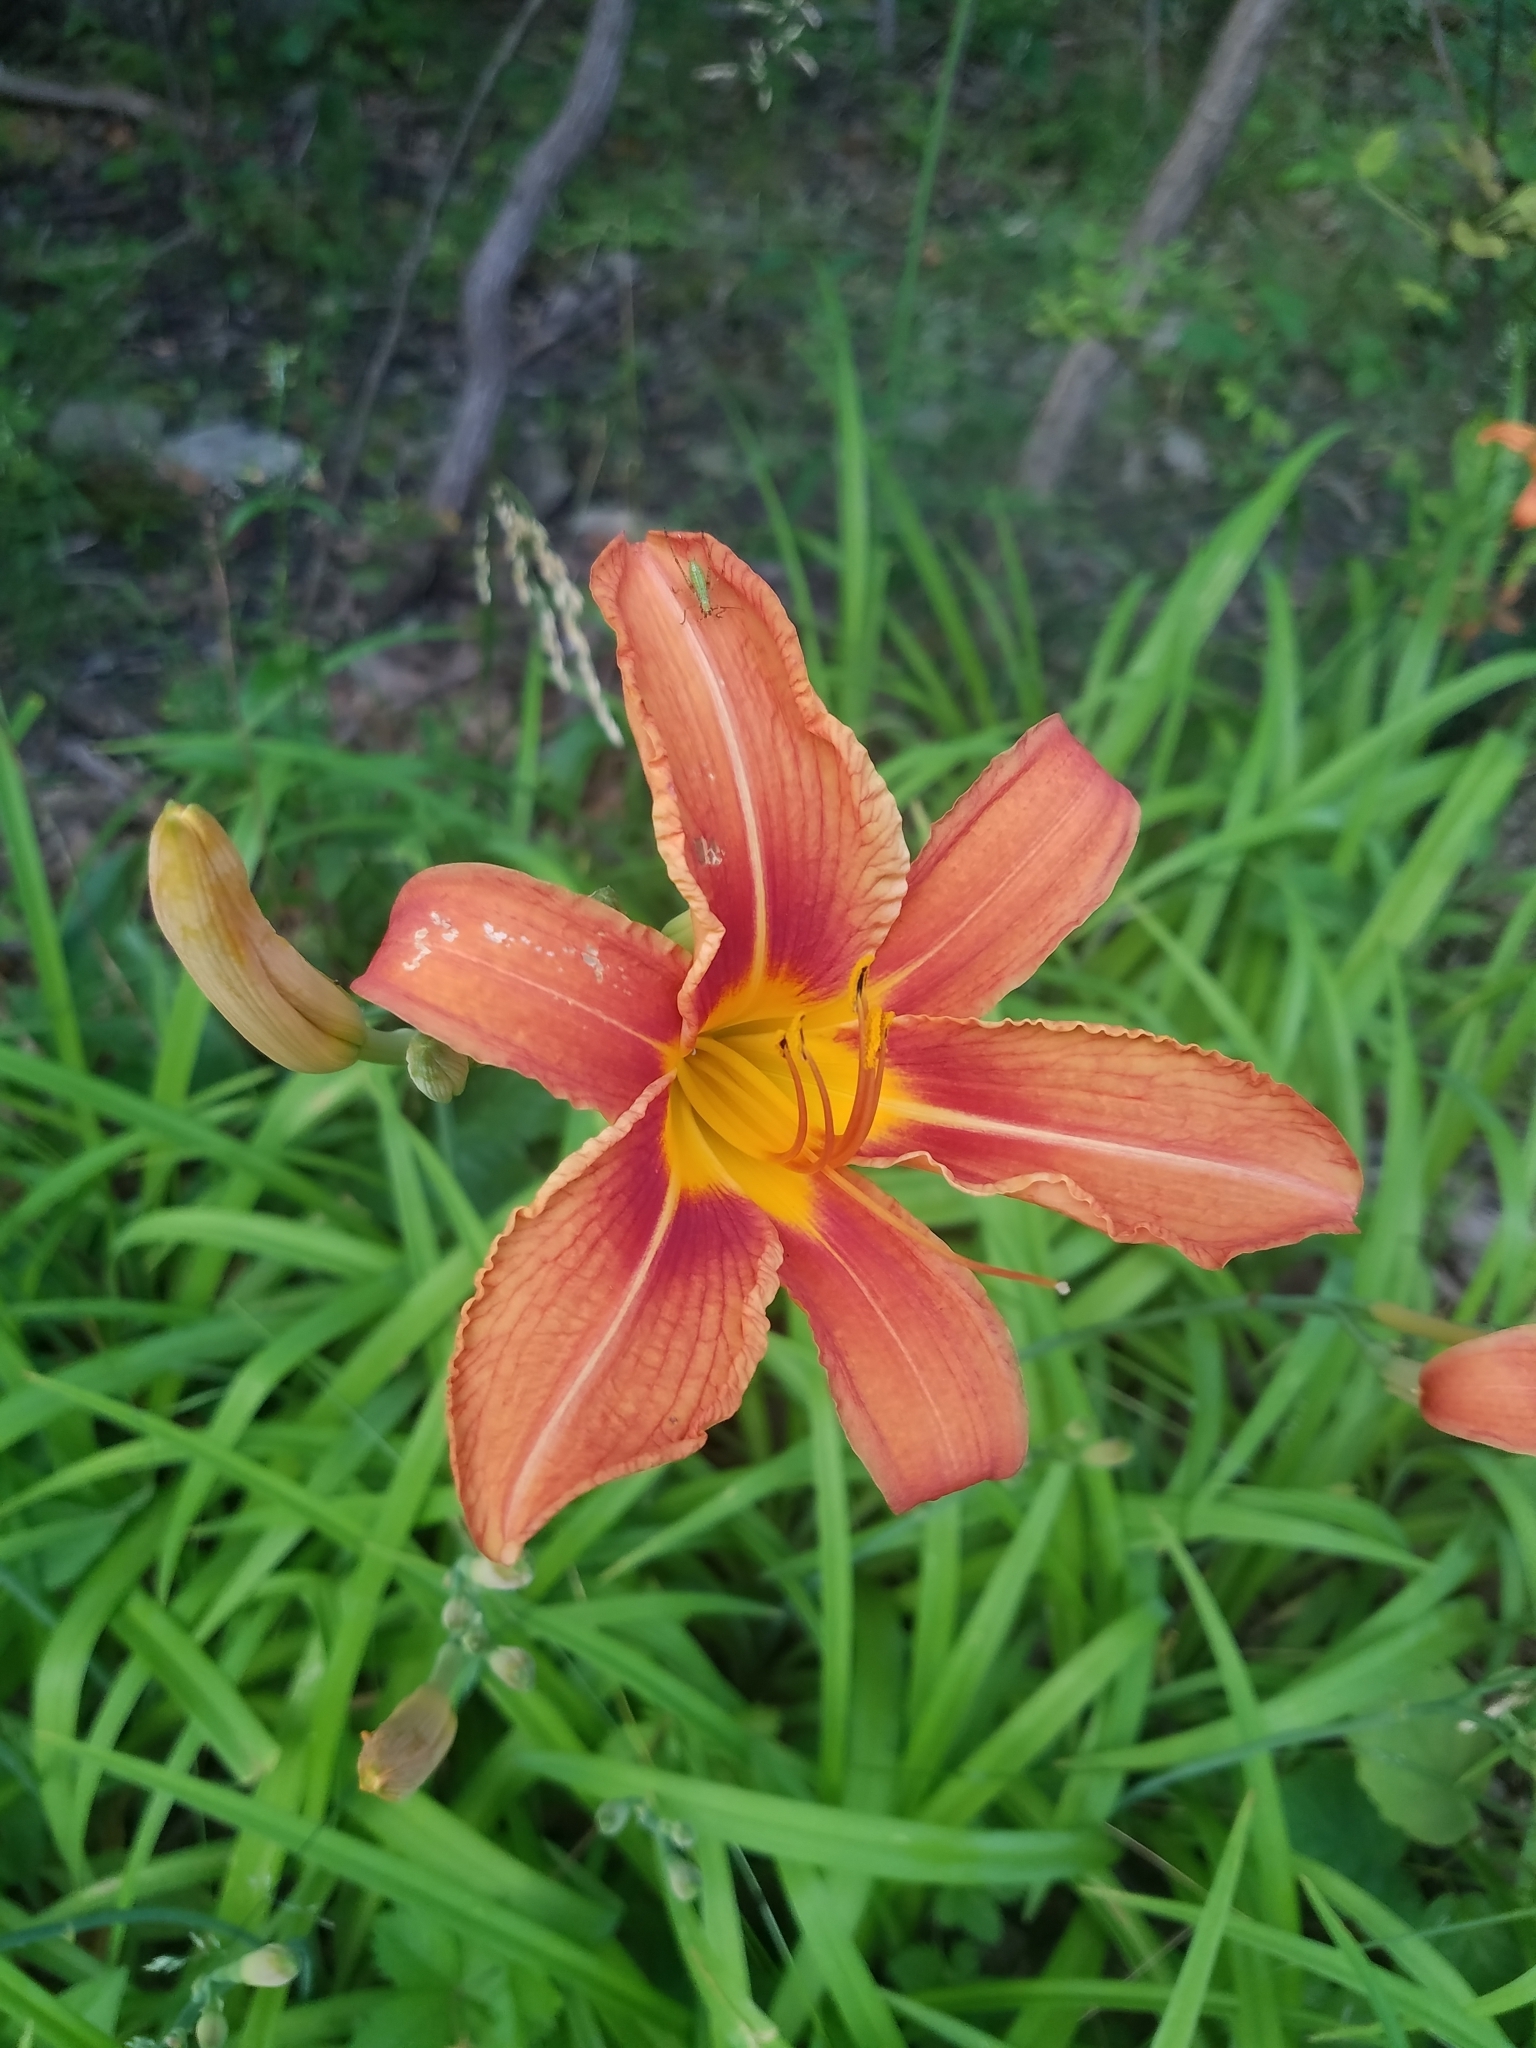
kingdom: Plantae
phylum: Tracheophyta
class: Liliopsida
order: Asparagales
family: Asphodelaceae
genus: Hemerocallis
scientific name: Hemerocallis fulva
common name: Orange day-lily
